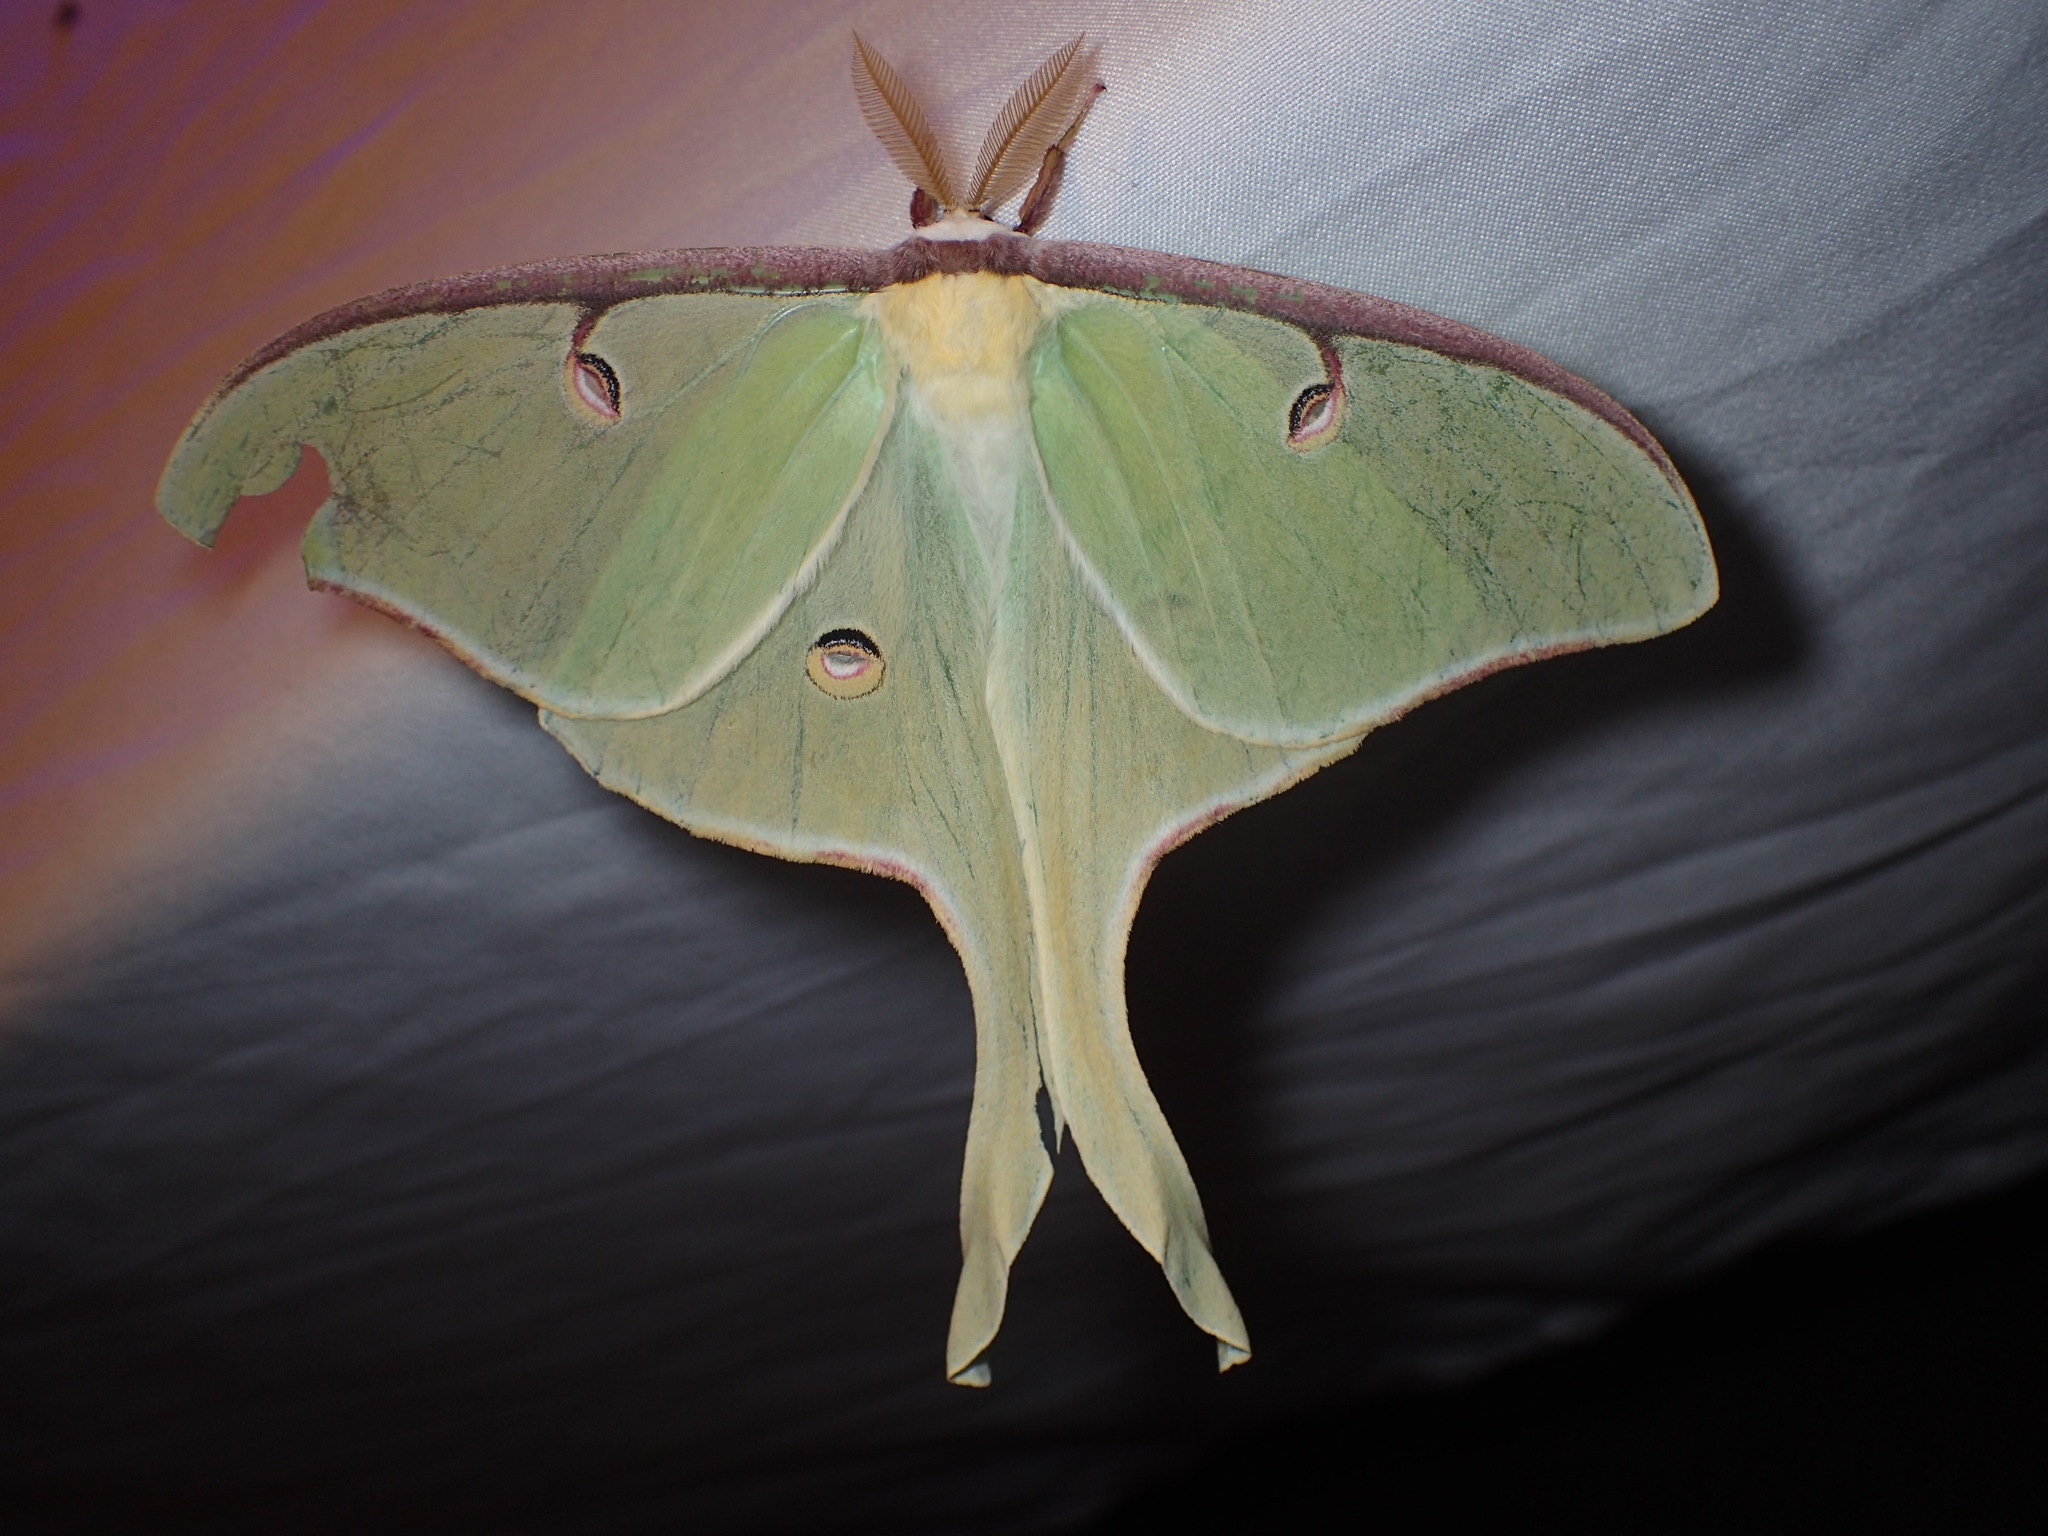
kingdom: Animalia
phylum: Arthropoda
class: Insecta
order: Lepidoptera
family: Saturniidae
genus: Actias
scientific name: Actias luna
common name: Luna moth
